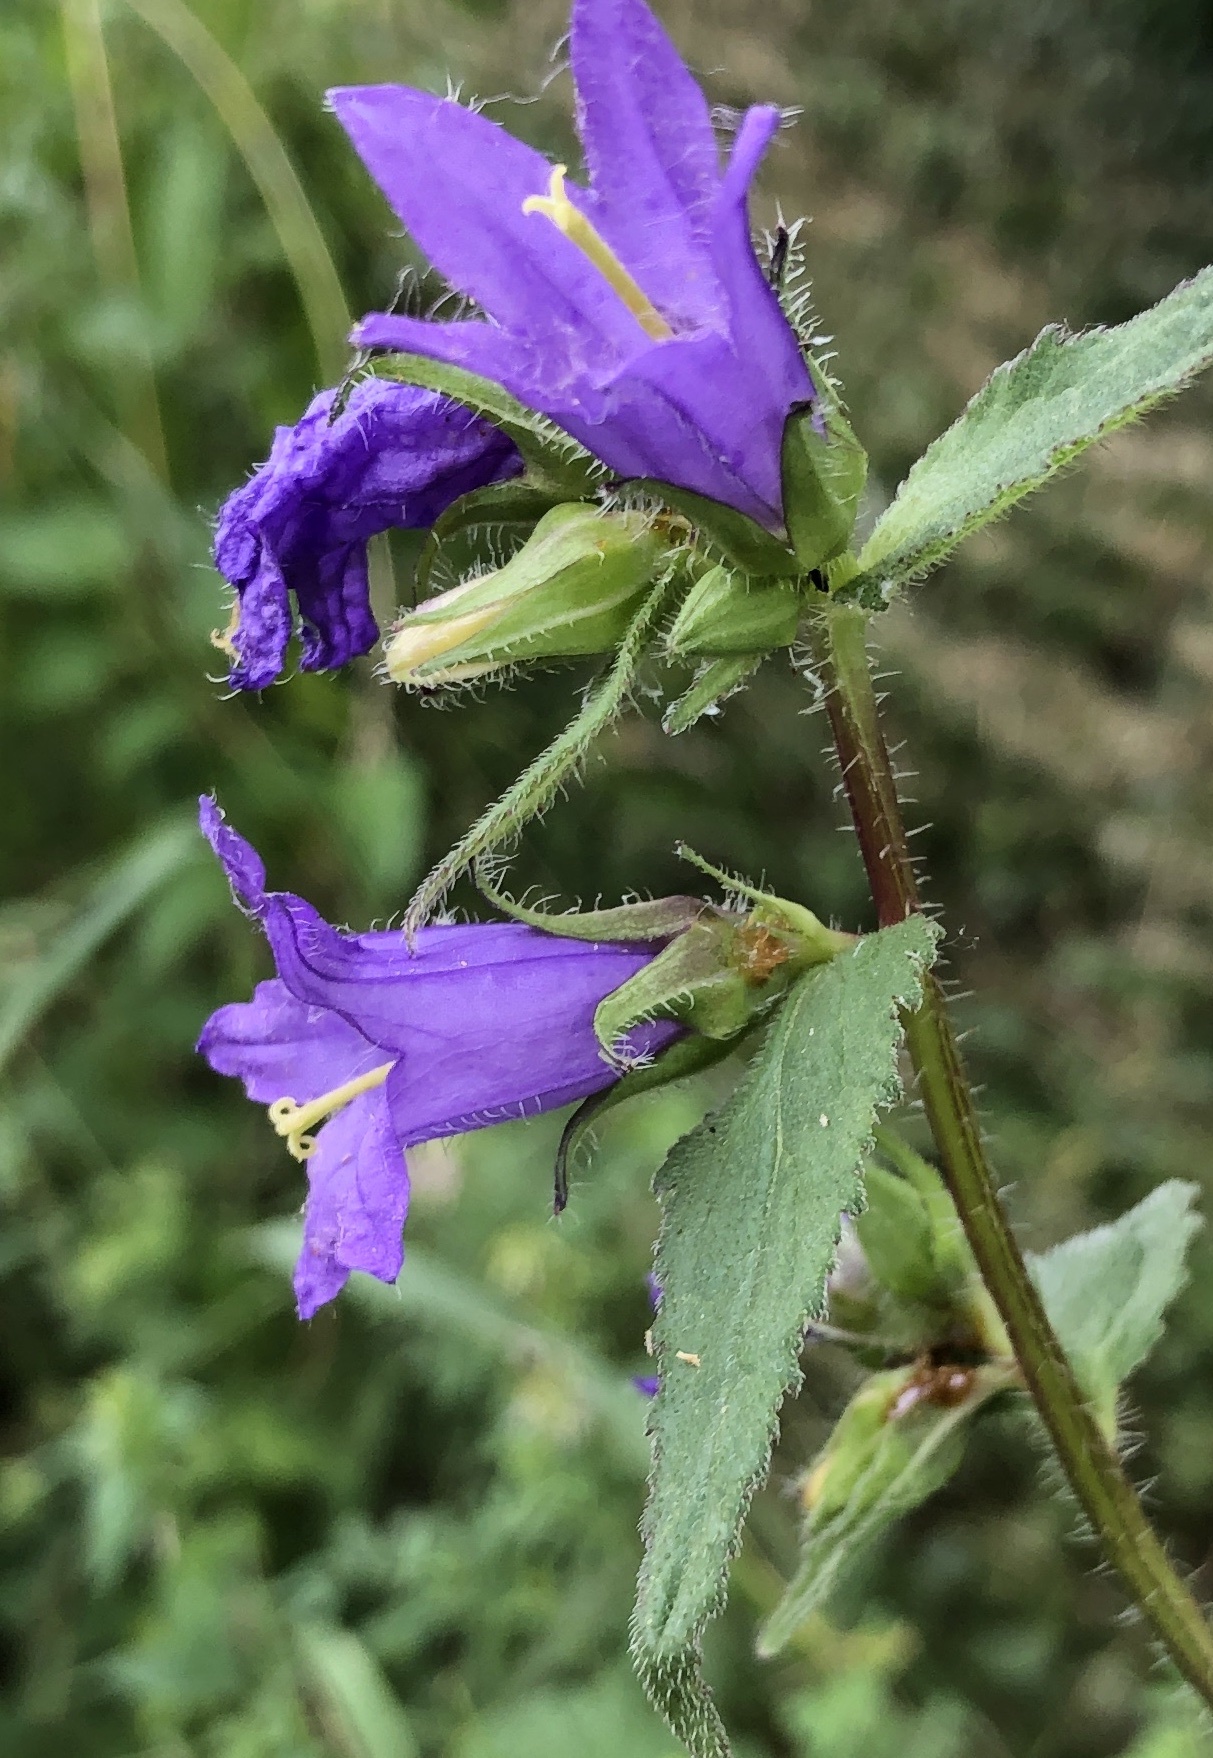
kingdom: Plantae
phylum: Tracheophyta
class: Magnoliopsida
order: Asterales
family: Campanulaceae
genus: Campanula
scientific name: Campanula trachelium
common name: Nettle-leaved bellflower
